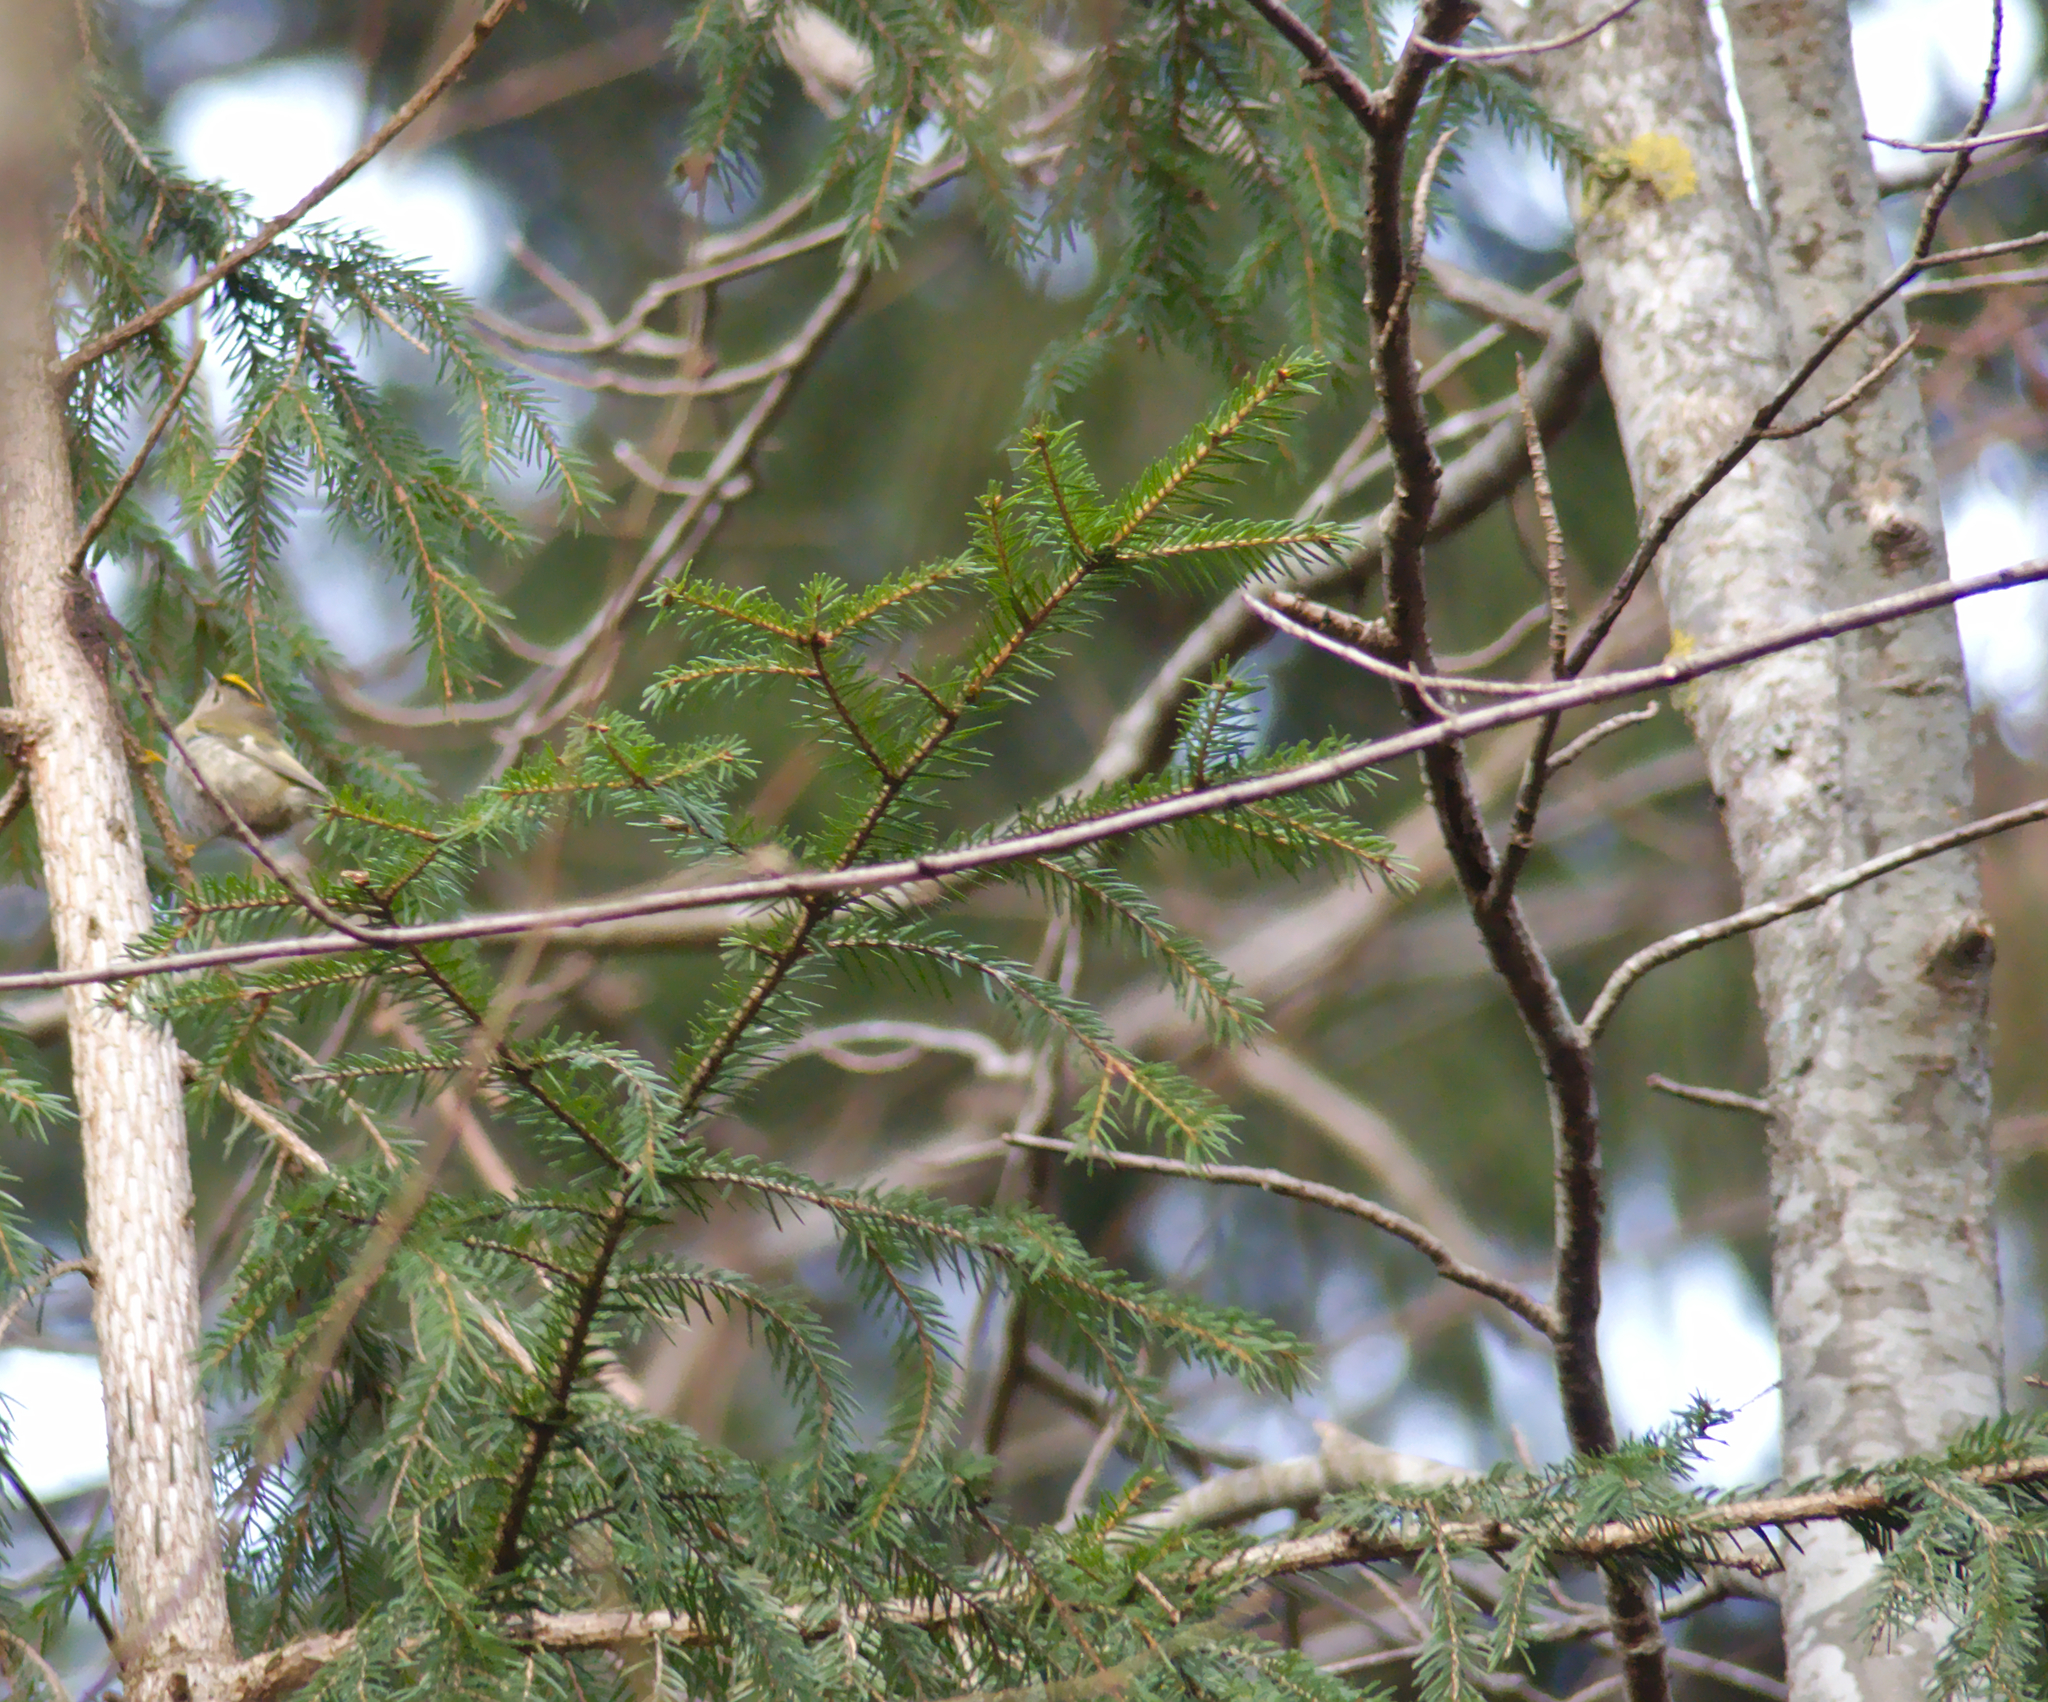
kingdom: Animalia
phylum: Chordata
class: Aves
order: Passeriformes
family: Regulidae
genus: Regulus
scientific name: Regulus regulus
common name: Goldcrest
